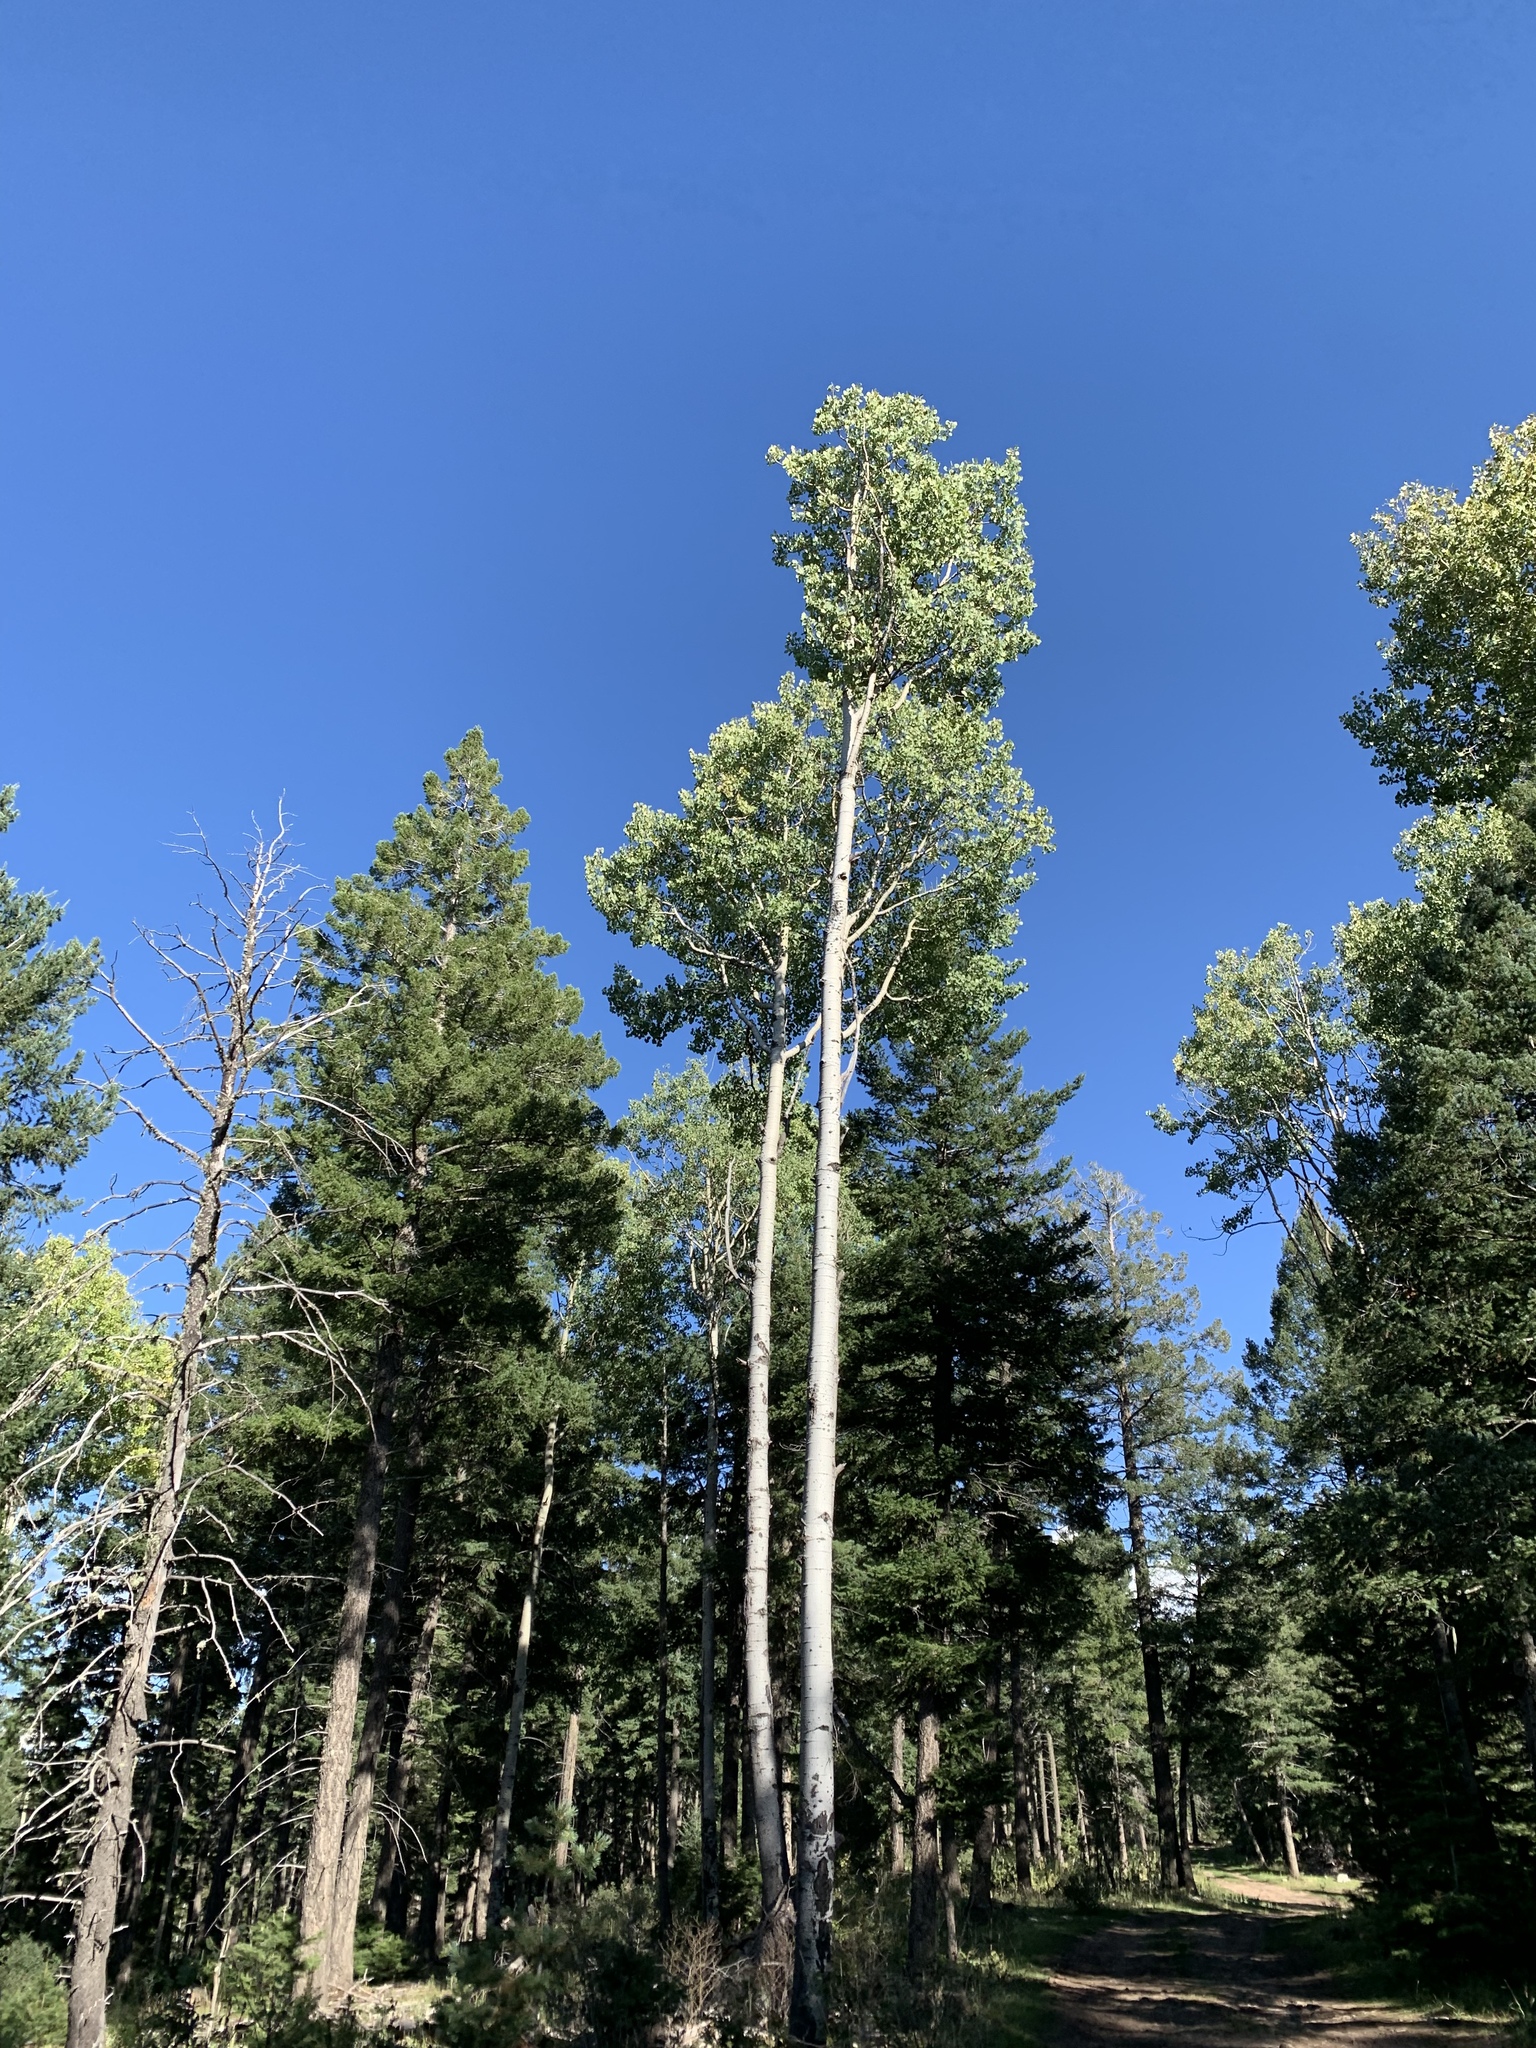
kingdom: Plantae
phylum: Tracheophyta
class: Magnoliopsida
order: Malpighiales
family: Salicaceae
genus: Populus
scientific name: Populus tremuloides
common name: Quaking aspen
